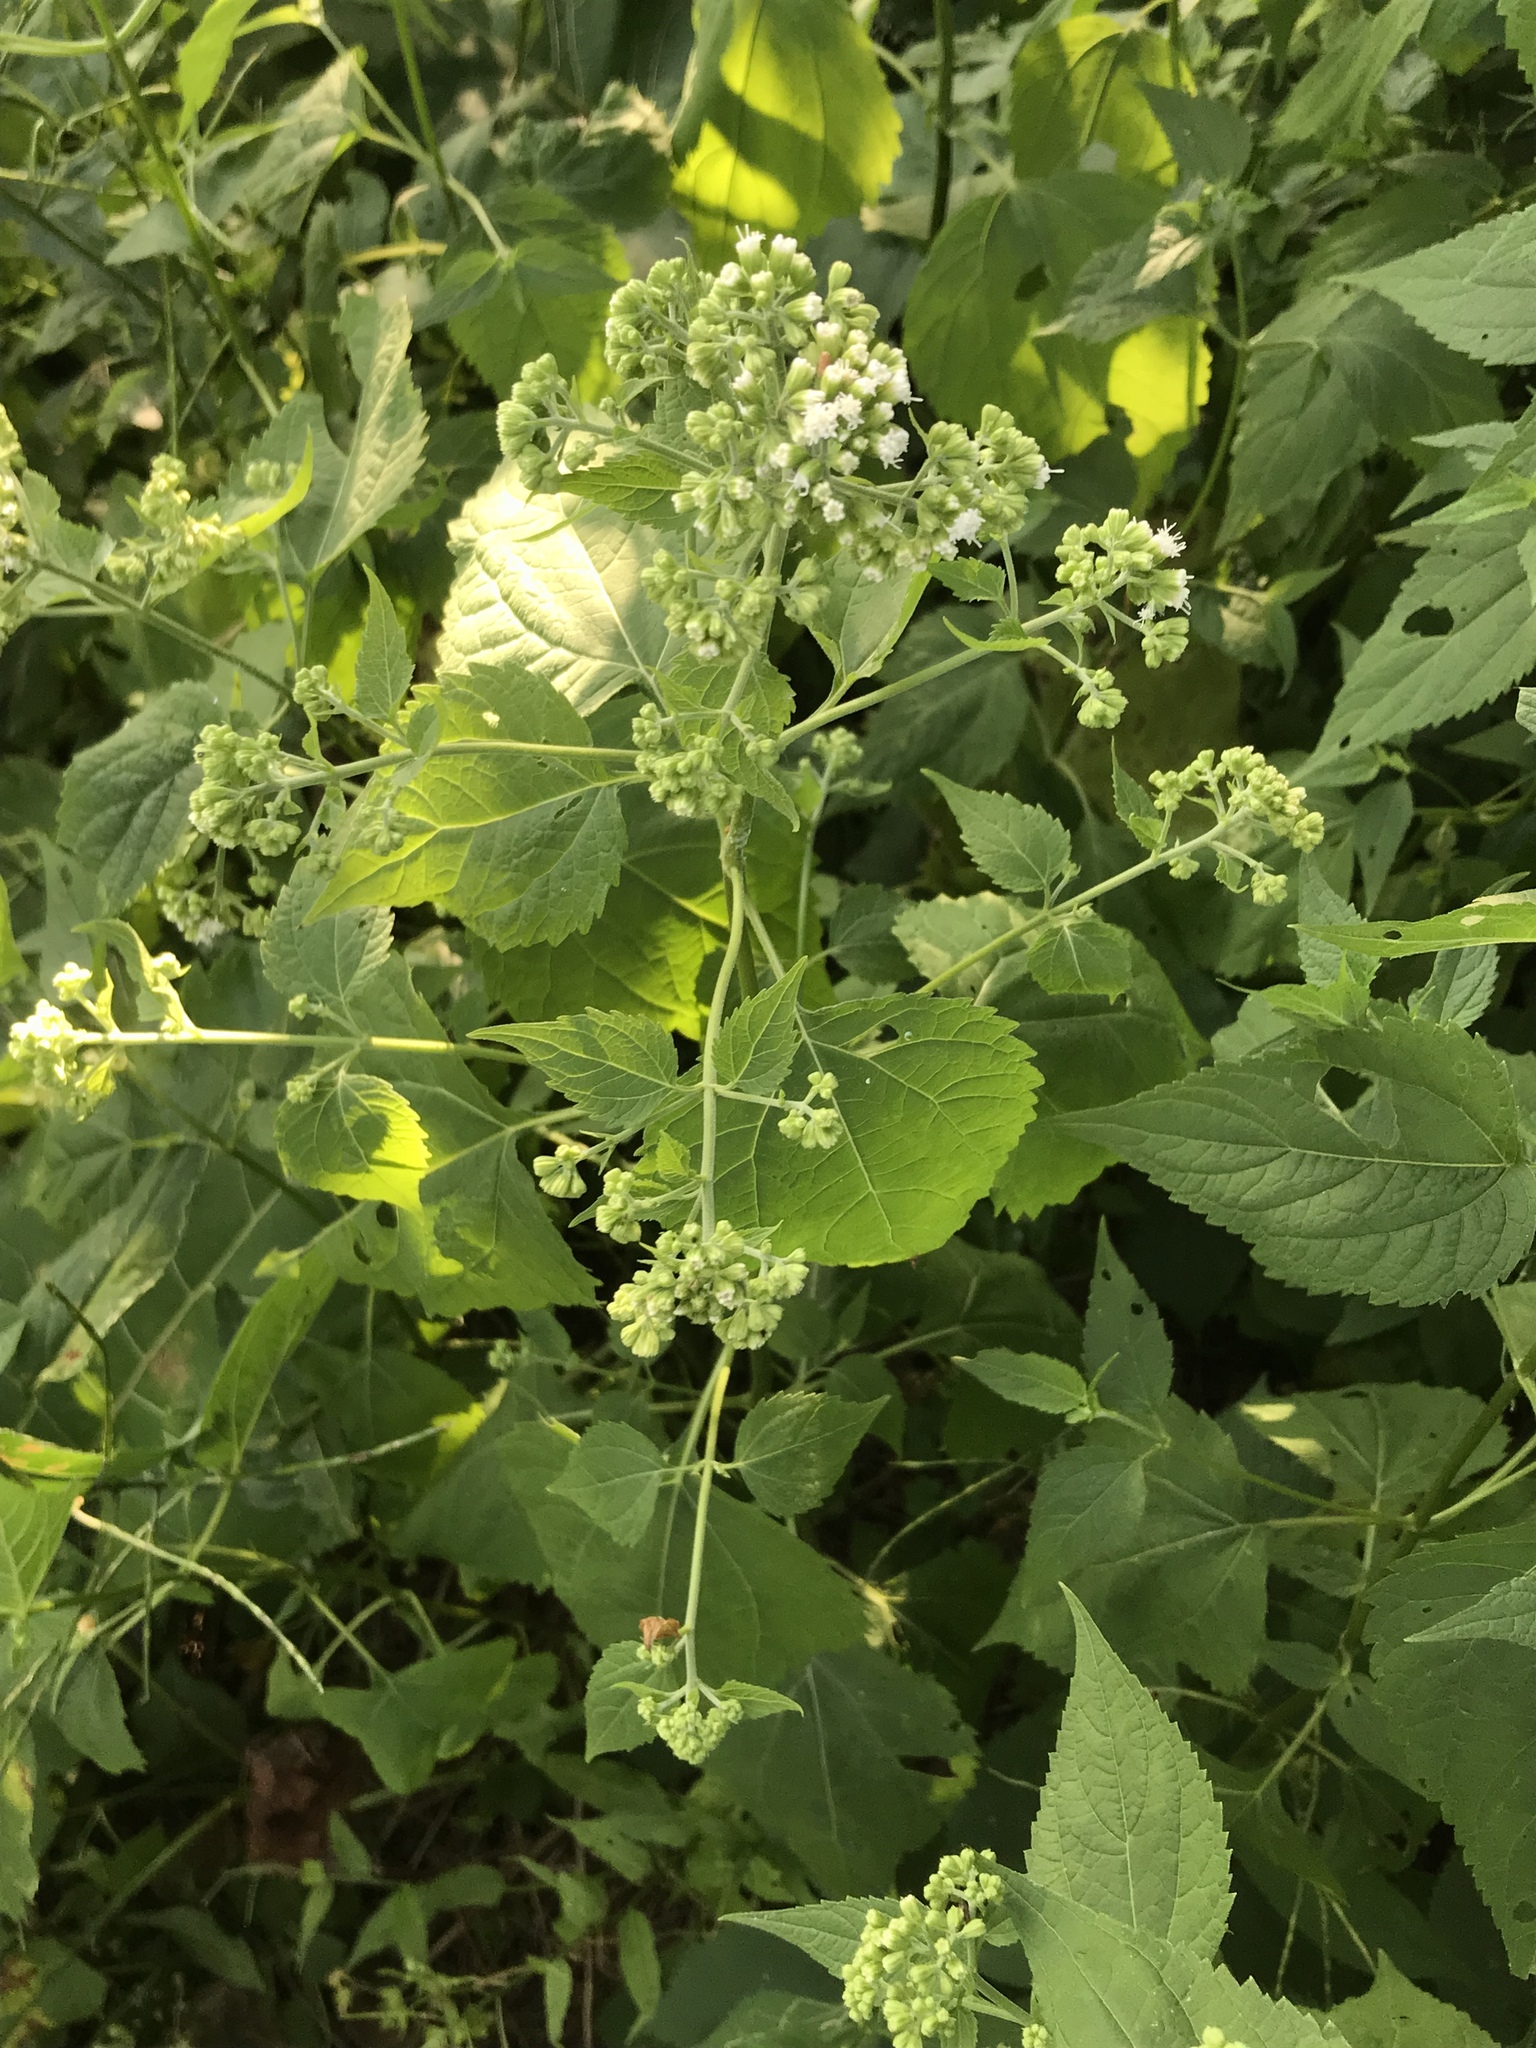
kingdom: Plantae
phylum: Tracheophyta
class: Magnoliopsida
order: Asterales
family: Asteraceae
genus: Ageratina
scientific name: Ageratina altissima
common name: White snakeroot
